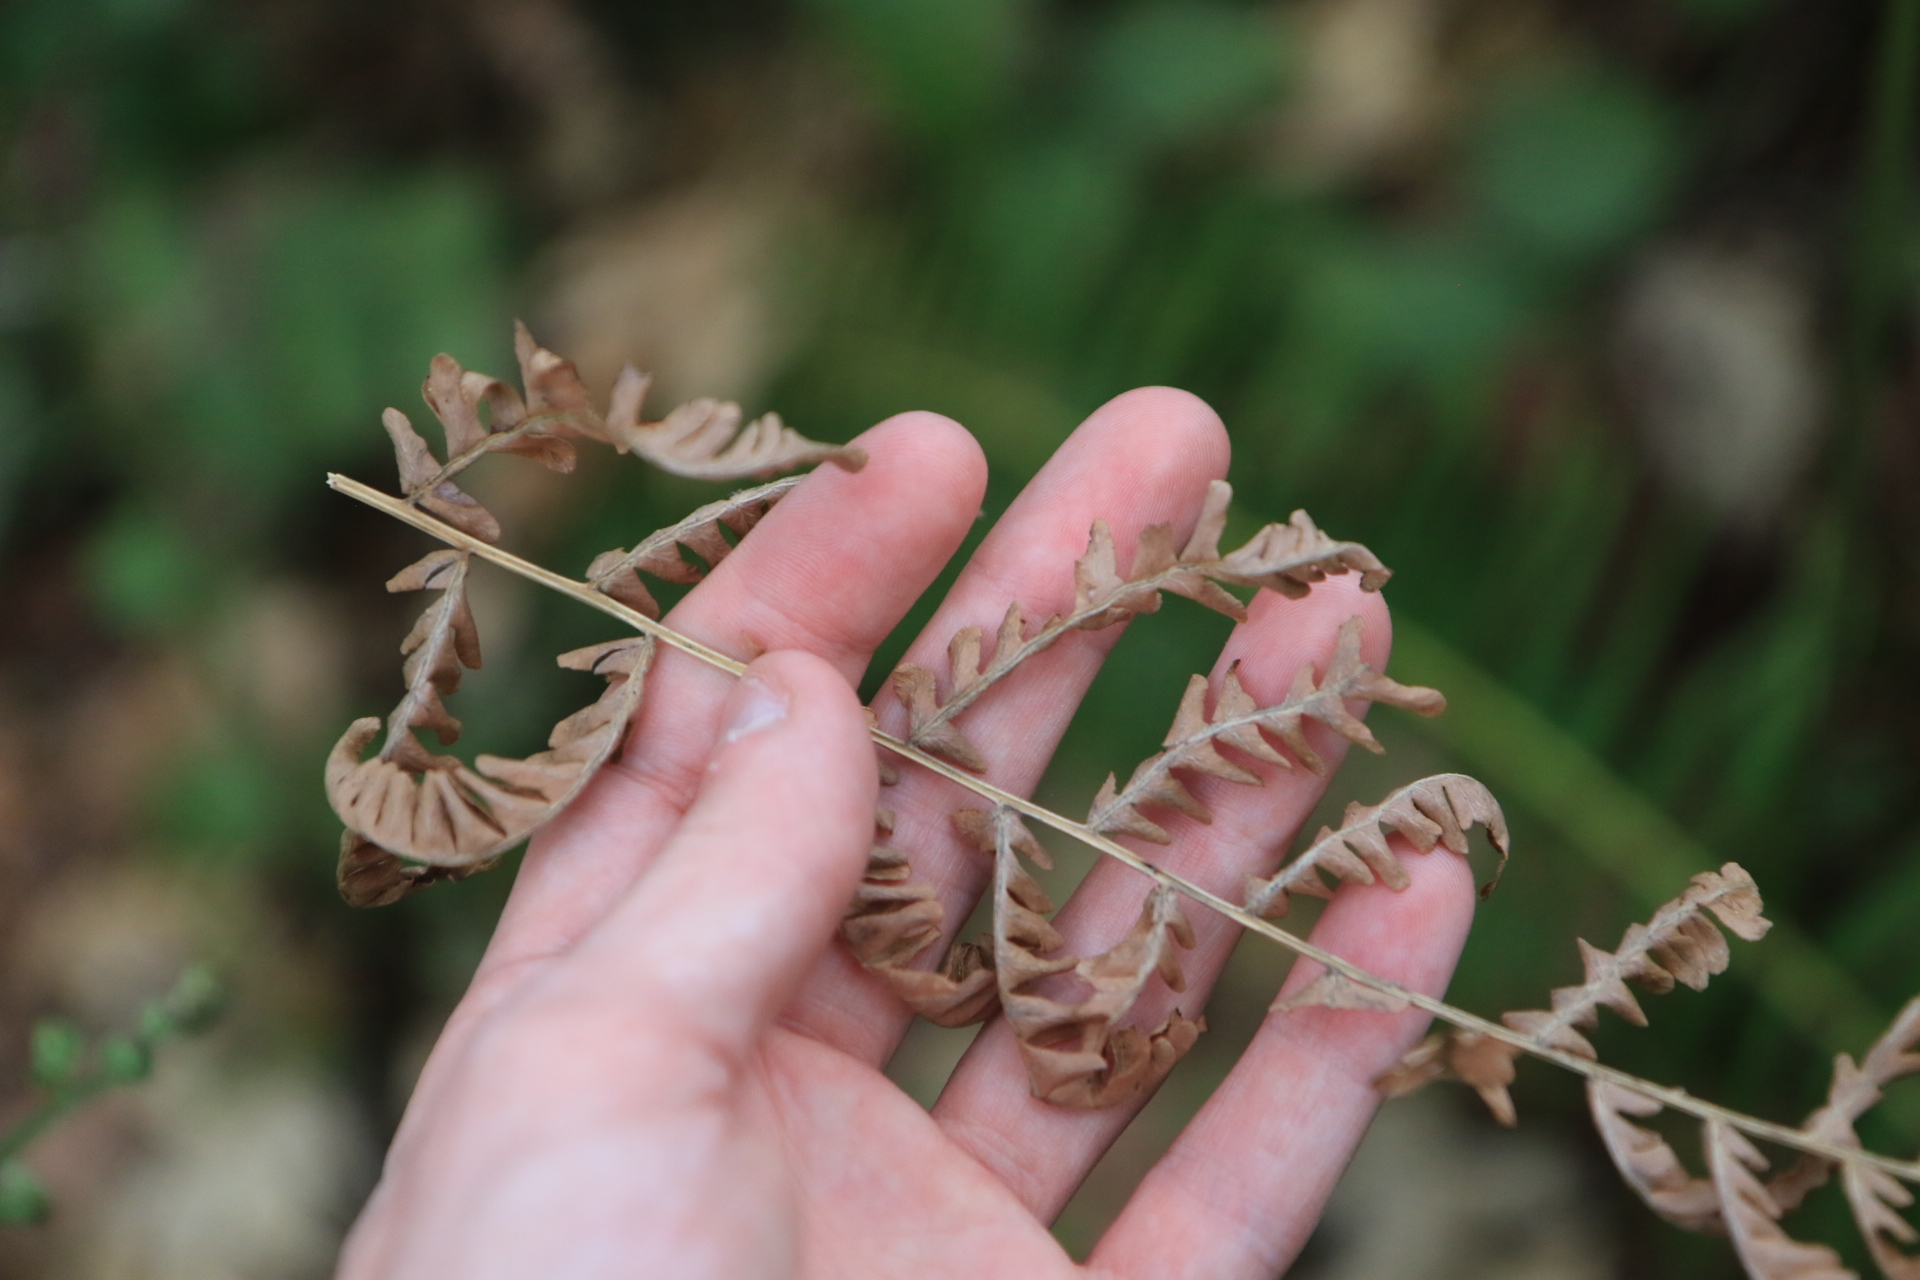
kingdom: Plantae
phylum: Tracheophyta
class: Polypodiopsida
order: Polypodiales
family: Dennstaedtiaceae
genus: Pteridium
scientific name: Pteridium aquilinum
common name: Bracken
